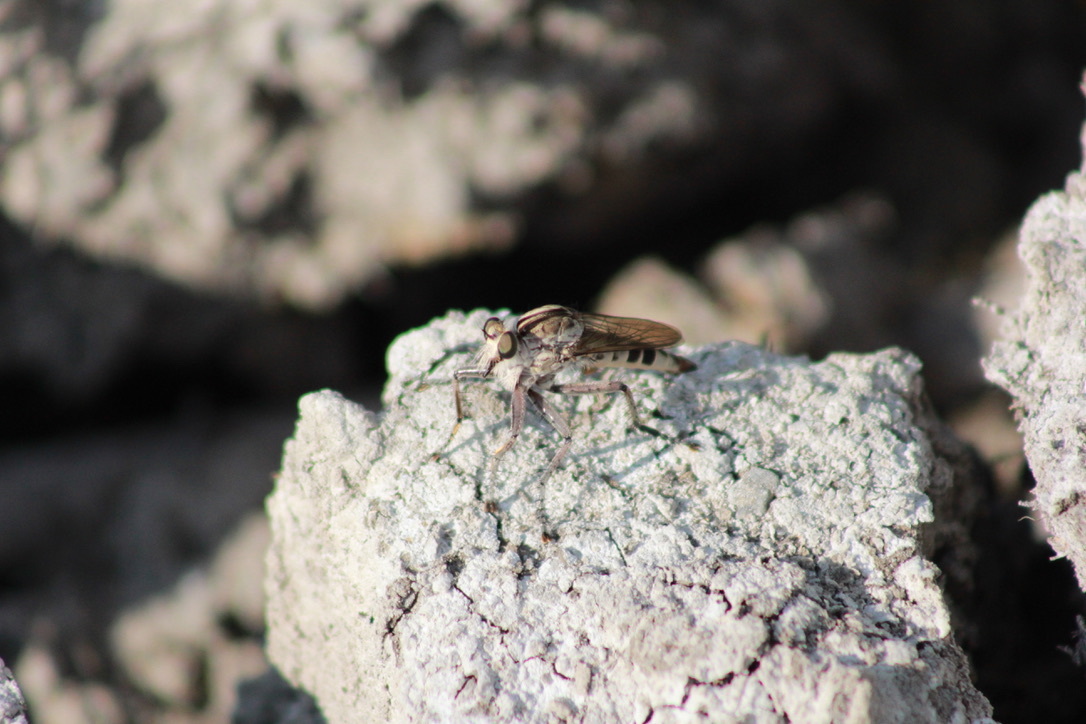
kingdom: Animalia
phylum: Arthropoda
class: Insecta
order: Diptera
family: Asilidae
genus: Triorla
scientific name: Triorla interrupta
